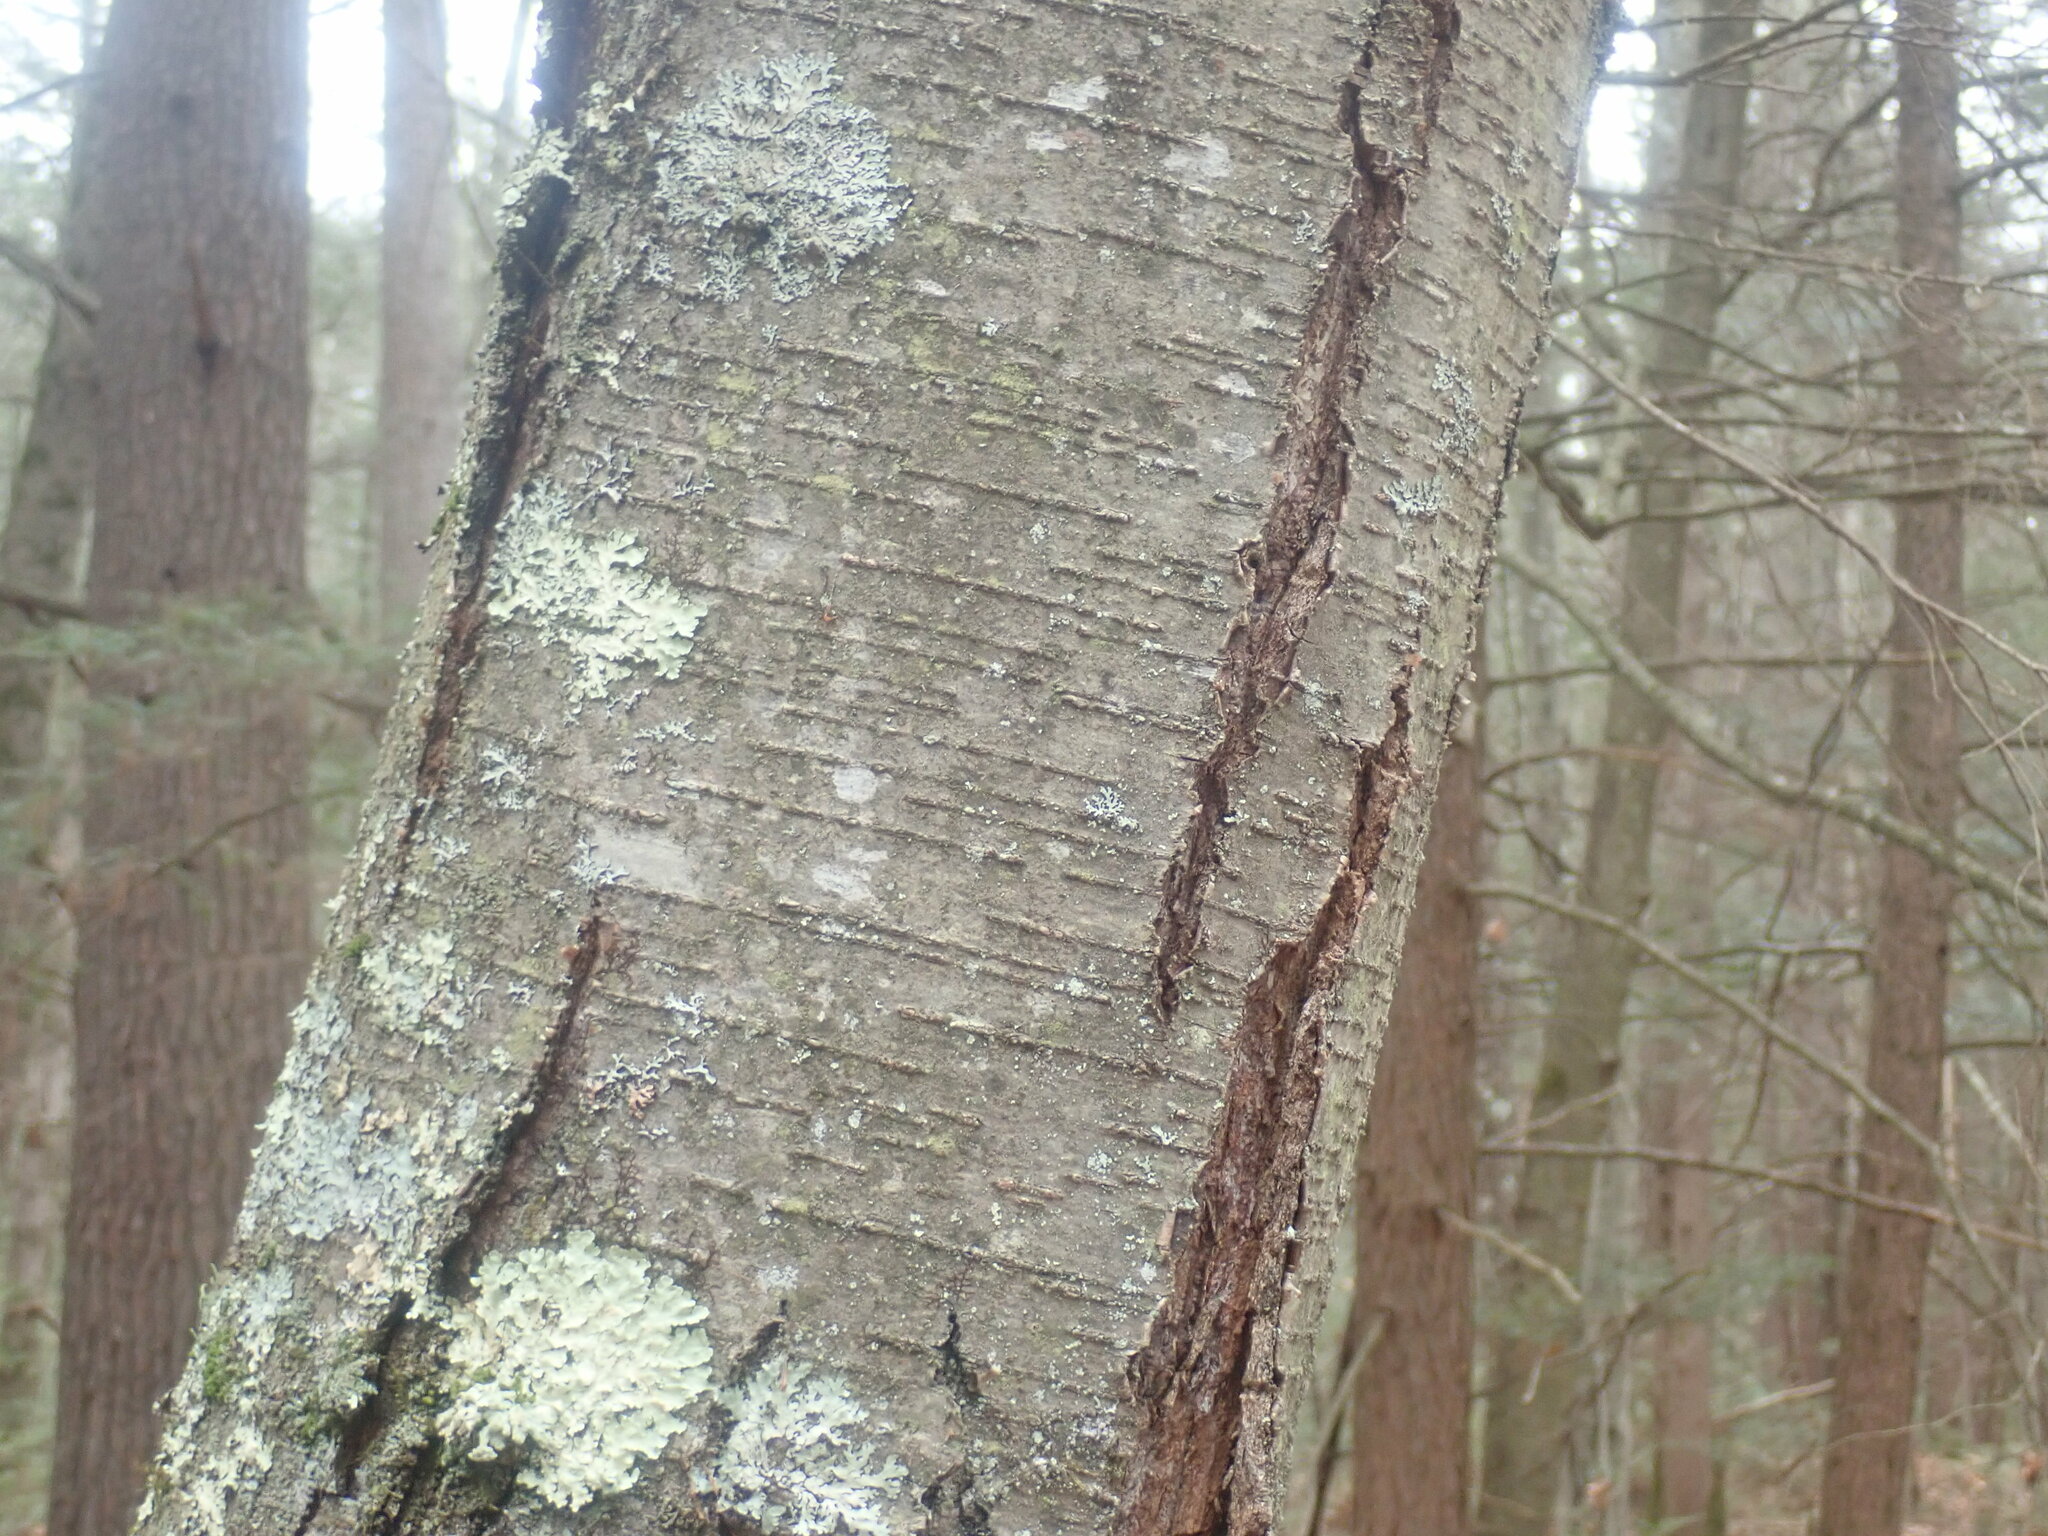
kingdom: Plantae
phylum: Tracheophyta
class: Magnoliopsida
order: Fagales
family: Betulaceae
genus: Betula
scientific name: Betula lenta
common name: Black birch
